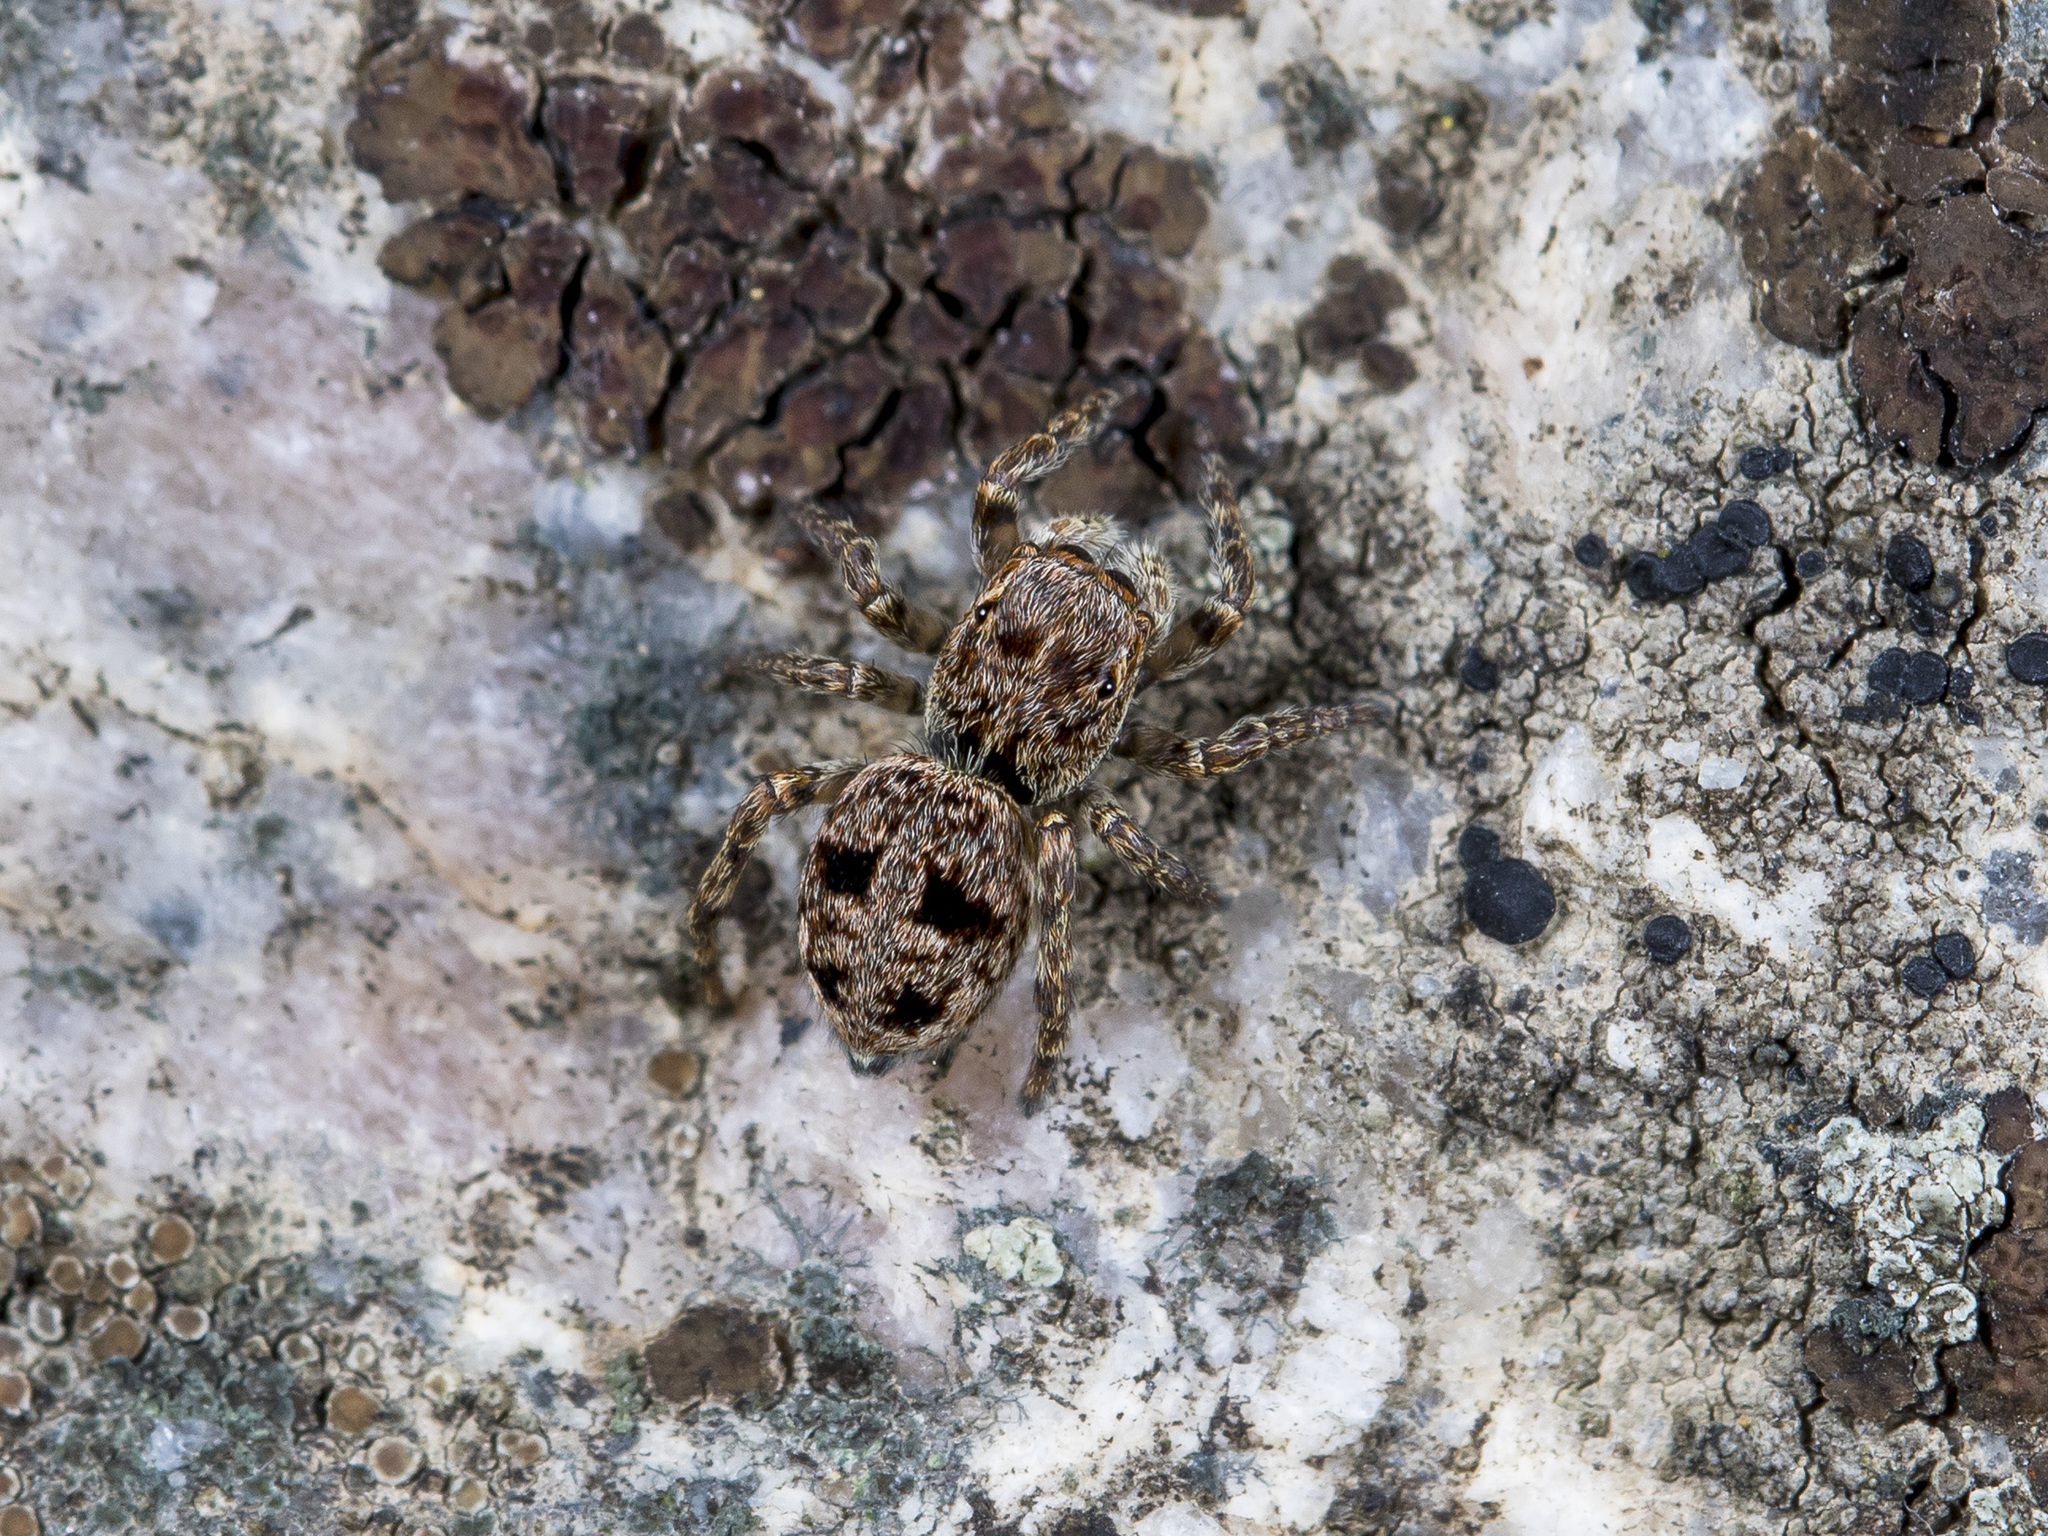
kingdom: Animalia
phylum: Arthropoda
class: Arachnida
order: Araneae
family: Salticidae
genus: Attulus
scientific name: Attulus monstrabilis
